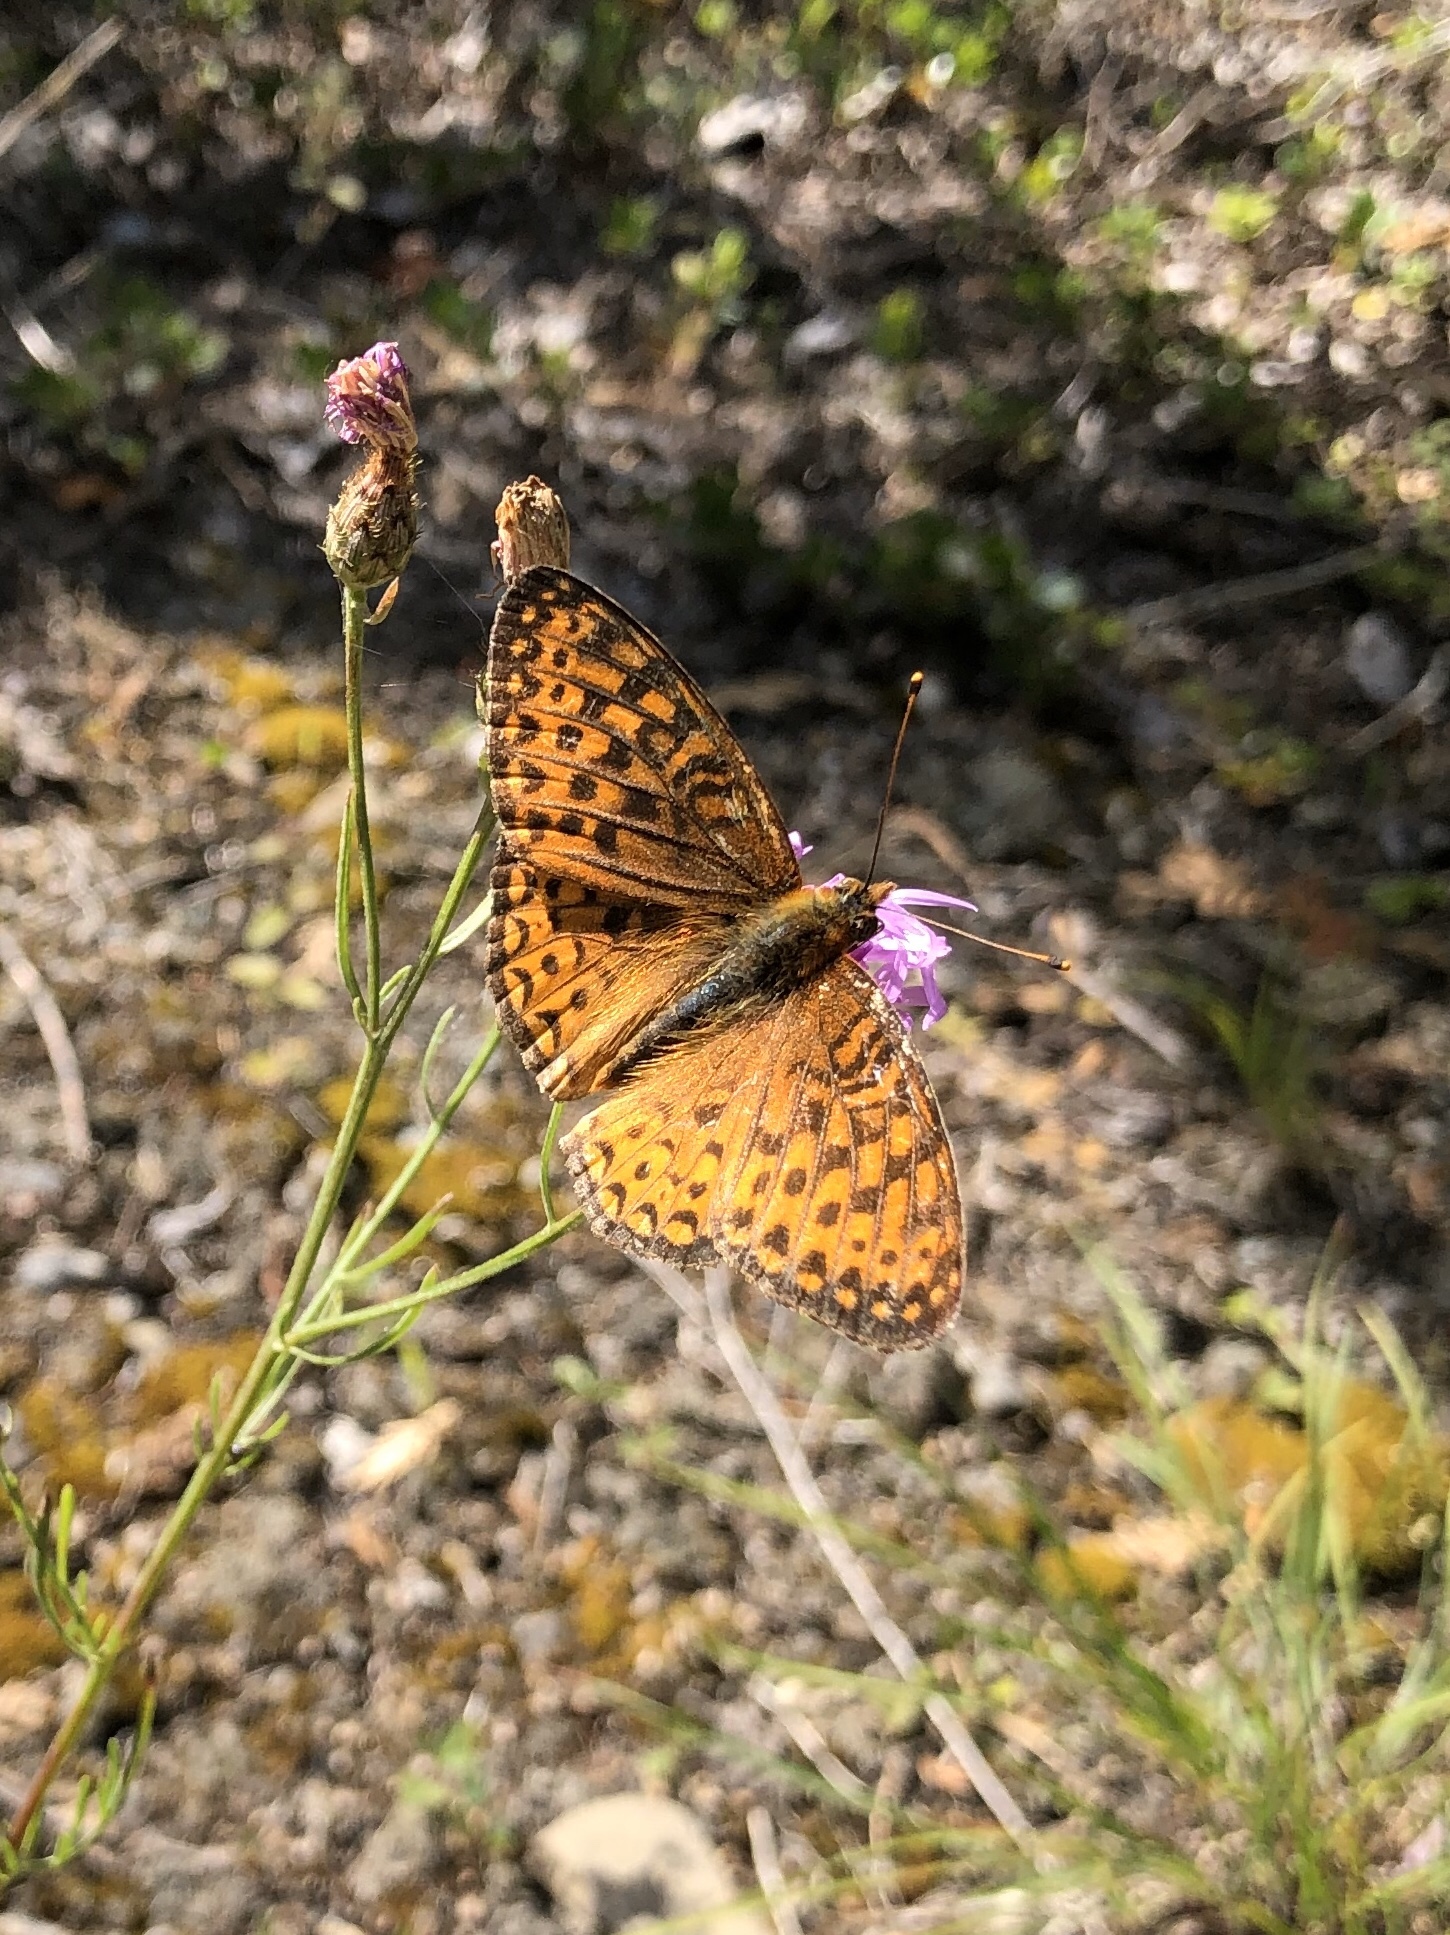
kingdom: Animalia
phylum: Arthropoda
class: Insecta
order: Lepidoptera
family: Nymphalidae
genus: Speyeria
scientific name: Speyeria atlantis
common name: Atlantis fritillary
